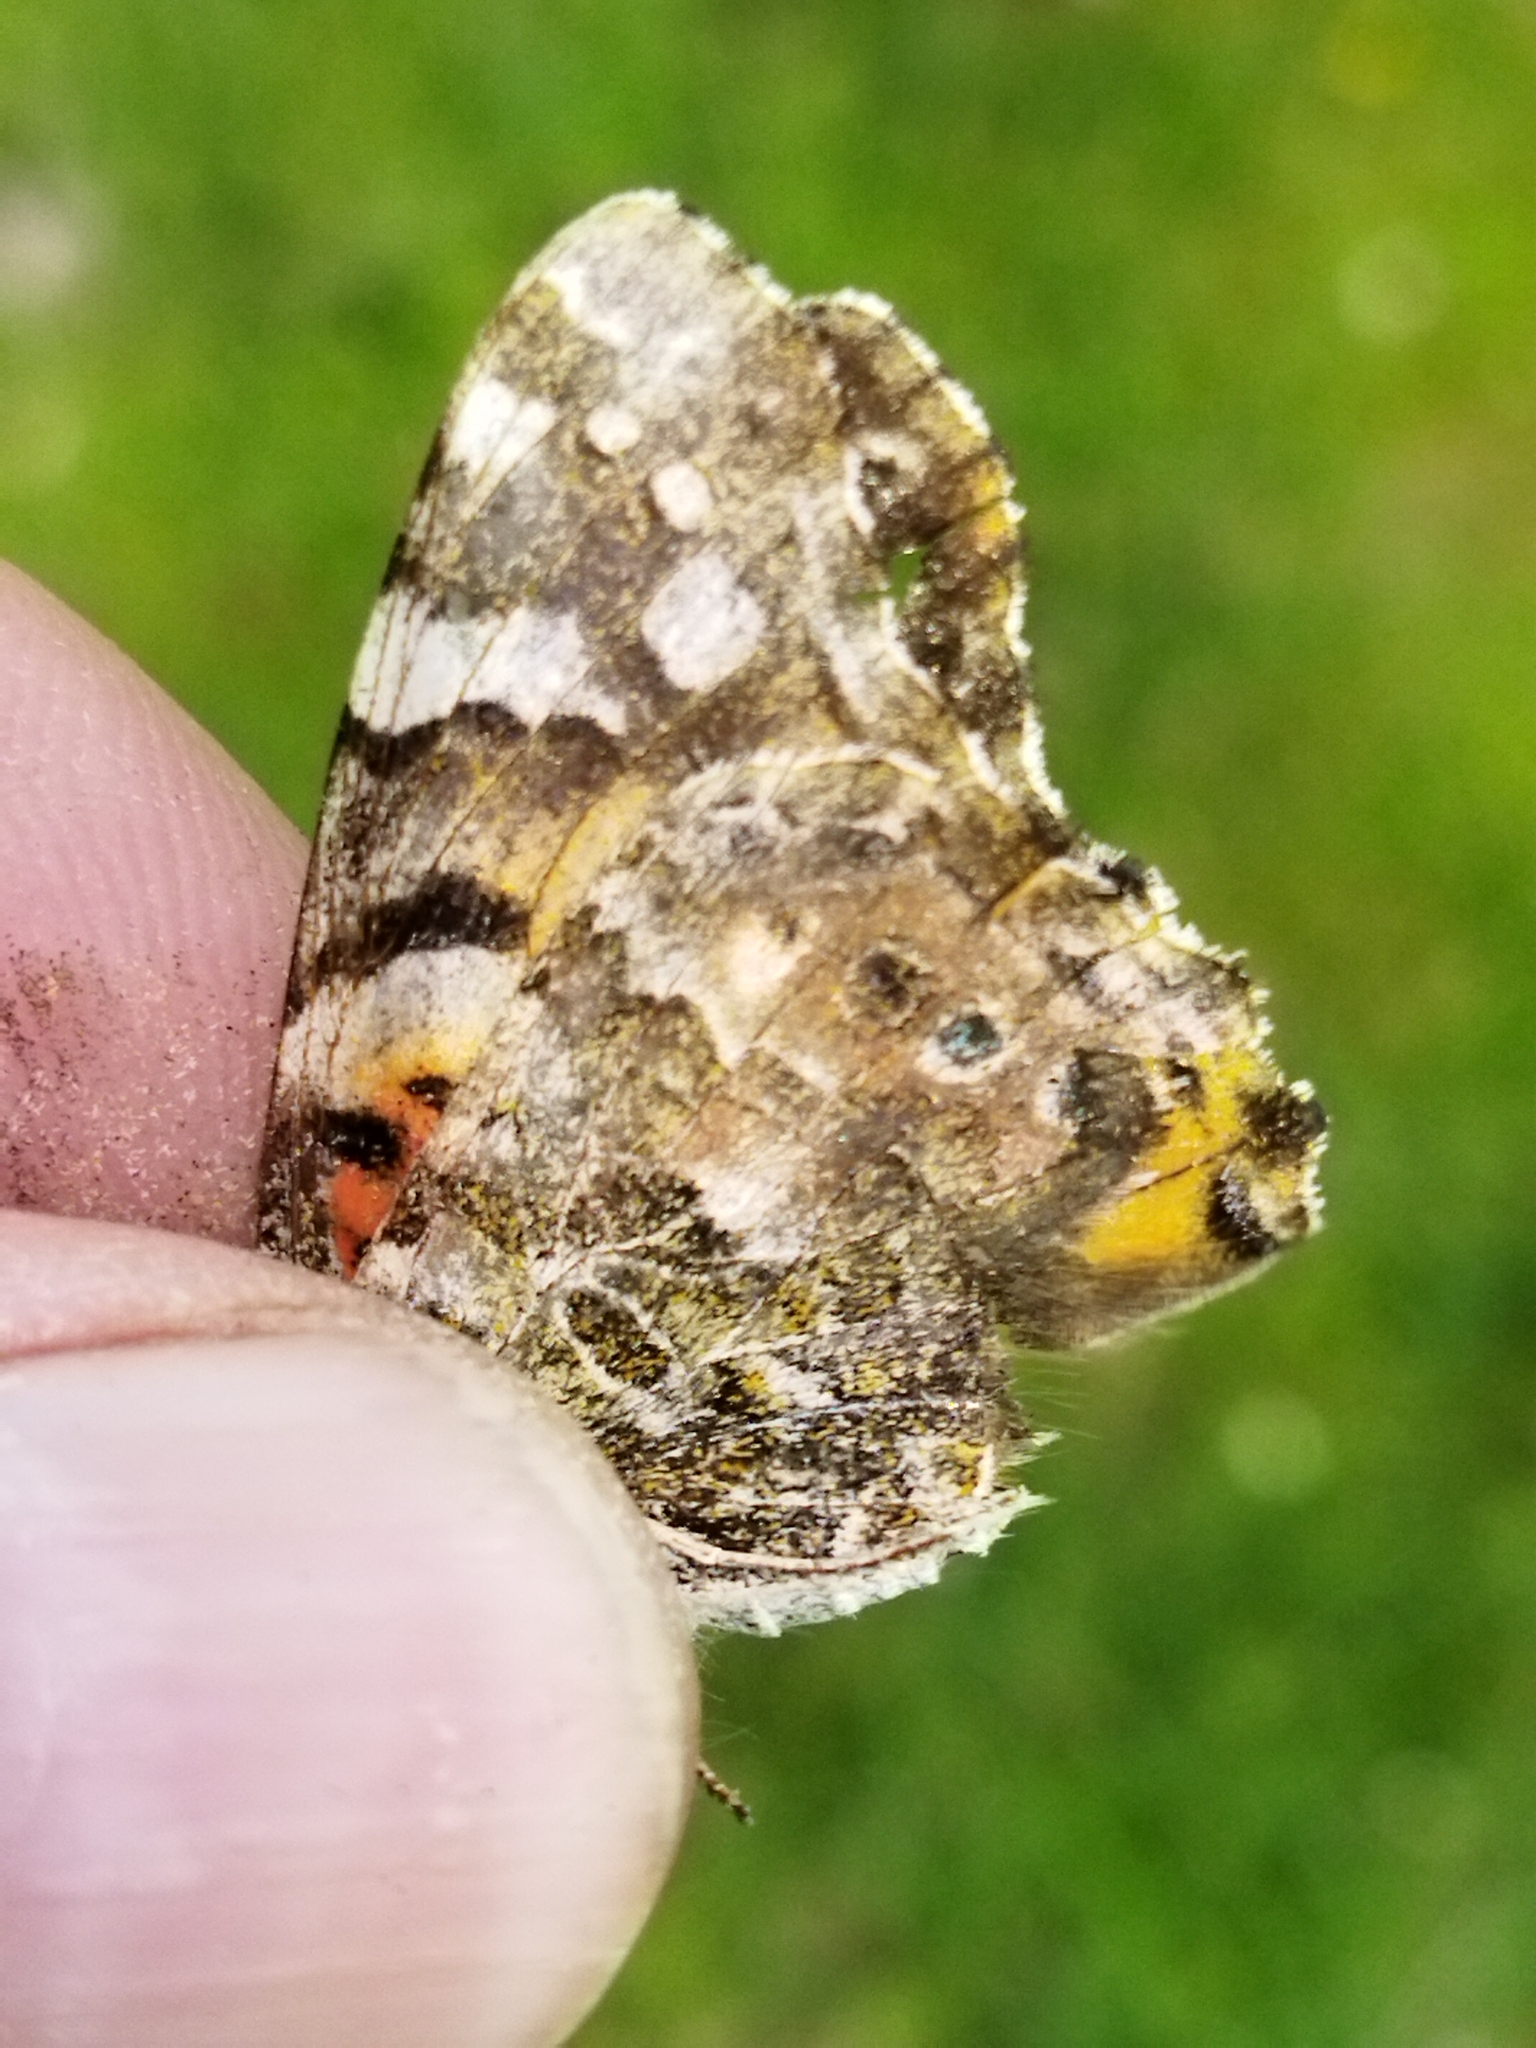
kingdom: Animalia
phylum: Arthropoda
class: Insecta
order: Lepidoptera
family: Nymphalidae
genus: Vanessa
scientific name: Vanessa cardui
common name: Painted lady
